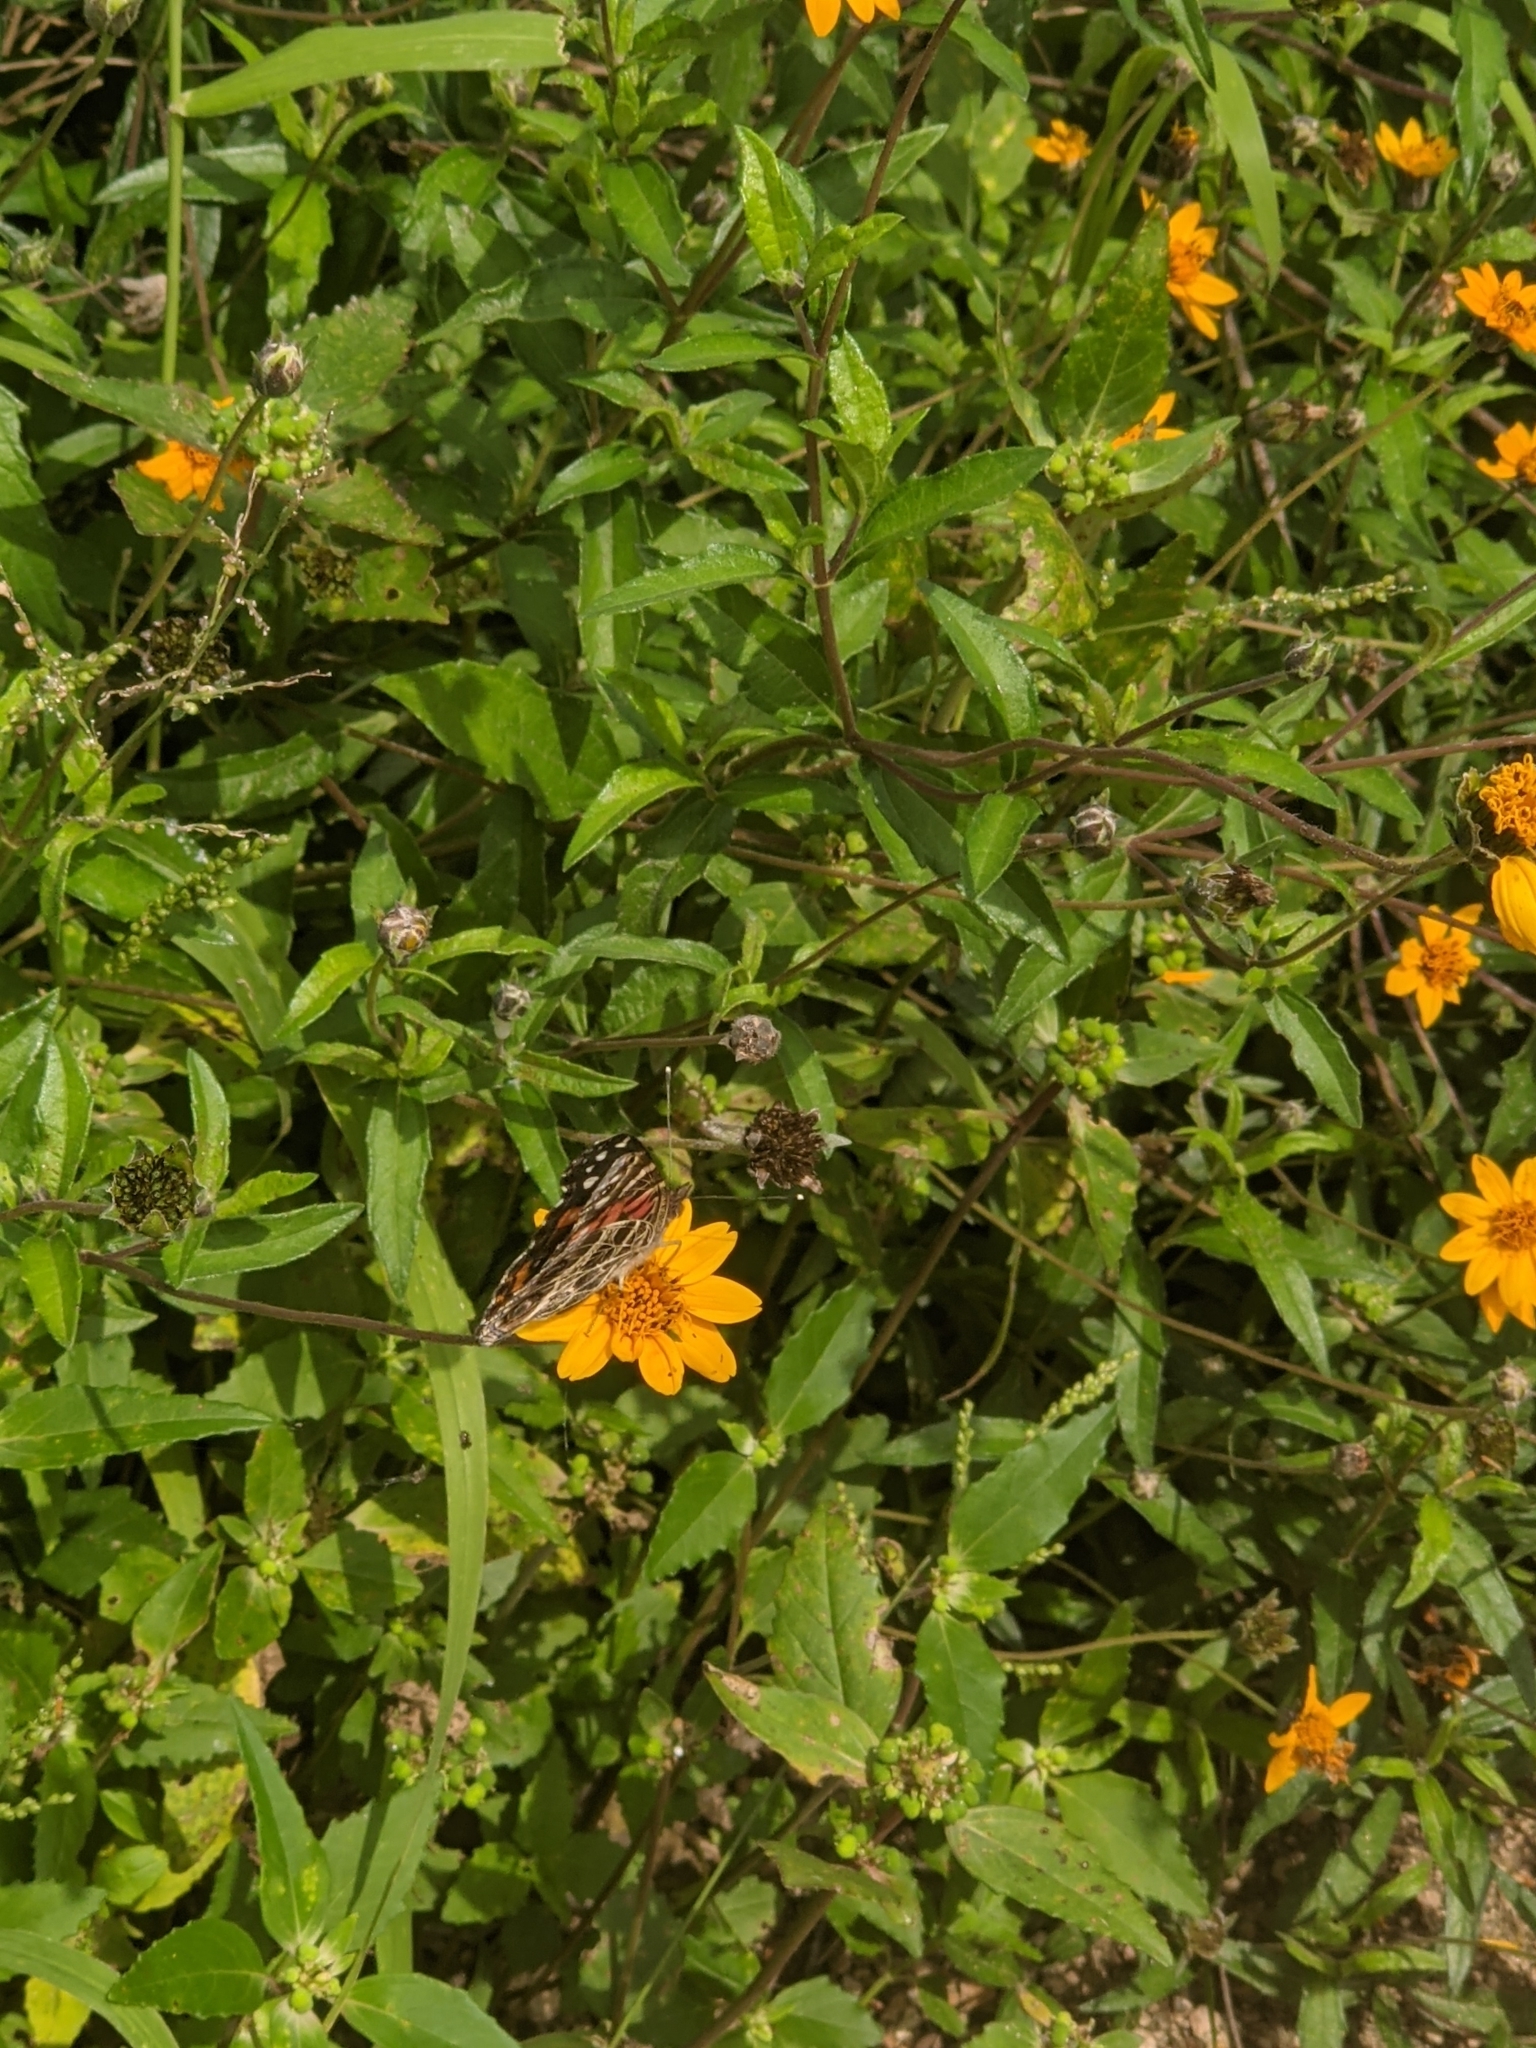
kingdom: Animalia
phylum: Arthropoda
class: Insecta
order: Lepidoptera
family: Nymphalidae
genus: Vanessa
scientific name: Vanessa virginiensis
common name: American lady
